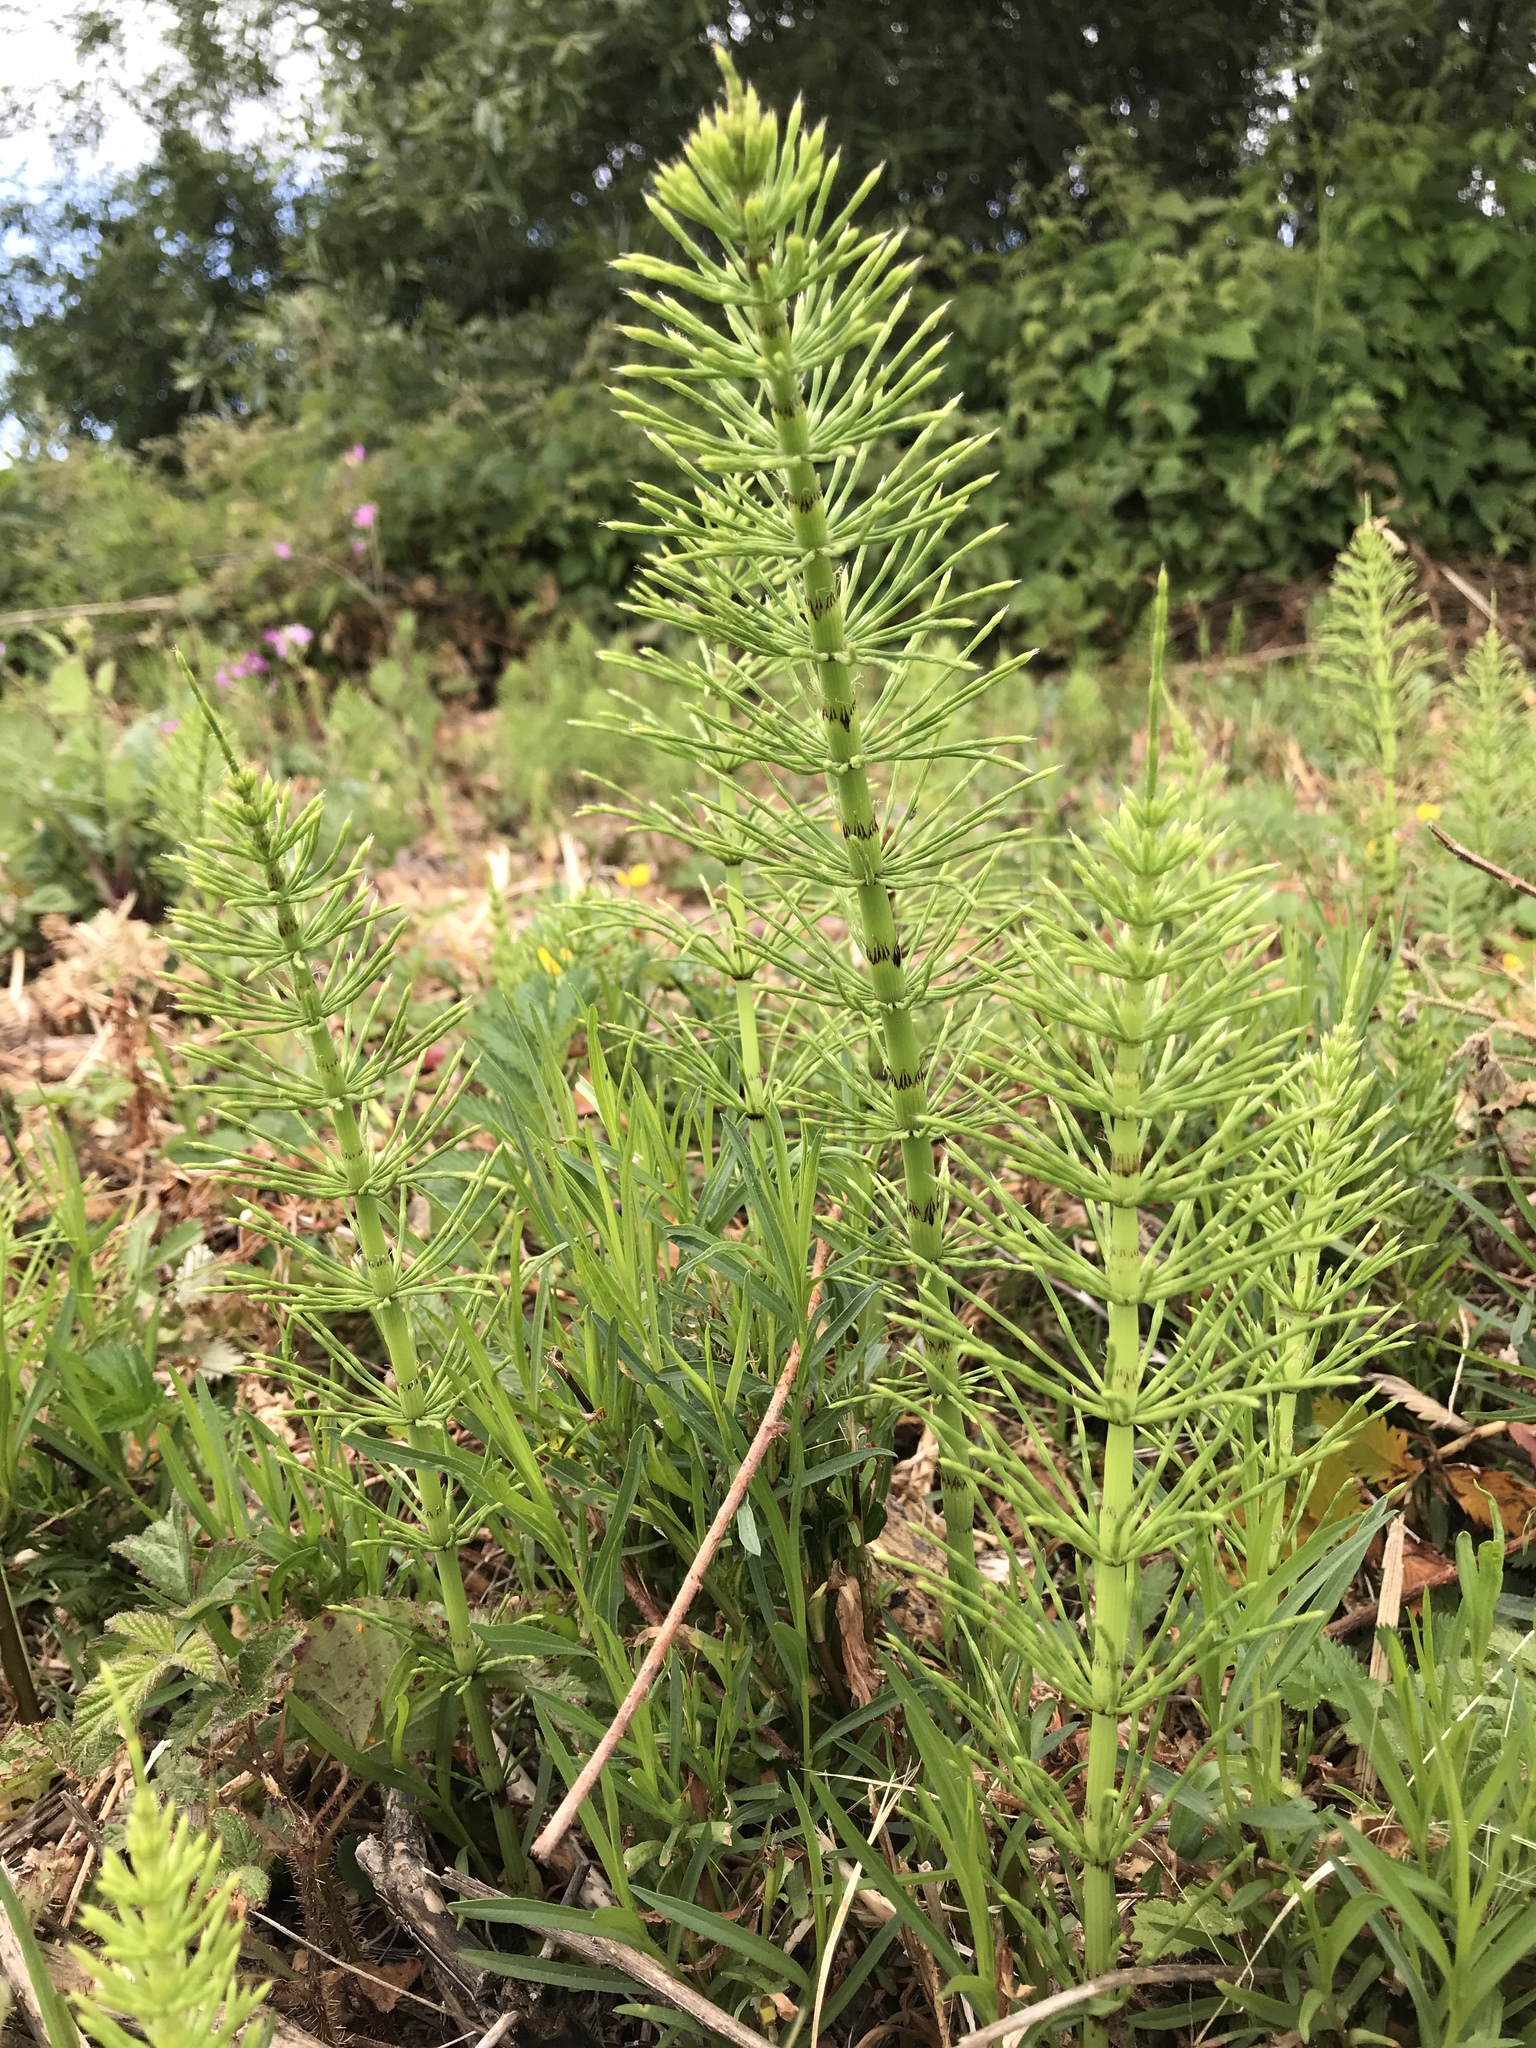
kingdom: Plantae
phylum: Tracheophyta
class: Polypodiopsida
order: Equisetales
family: Equisetaceae
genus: Equisetum
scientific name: Equisetum telmateia
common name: Great horsetail
